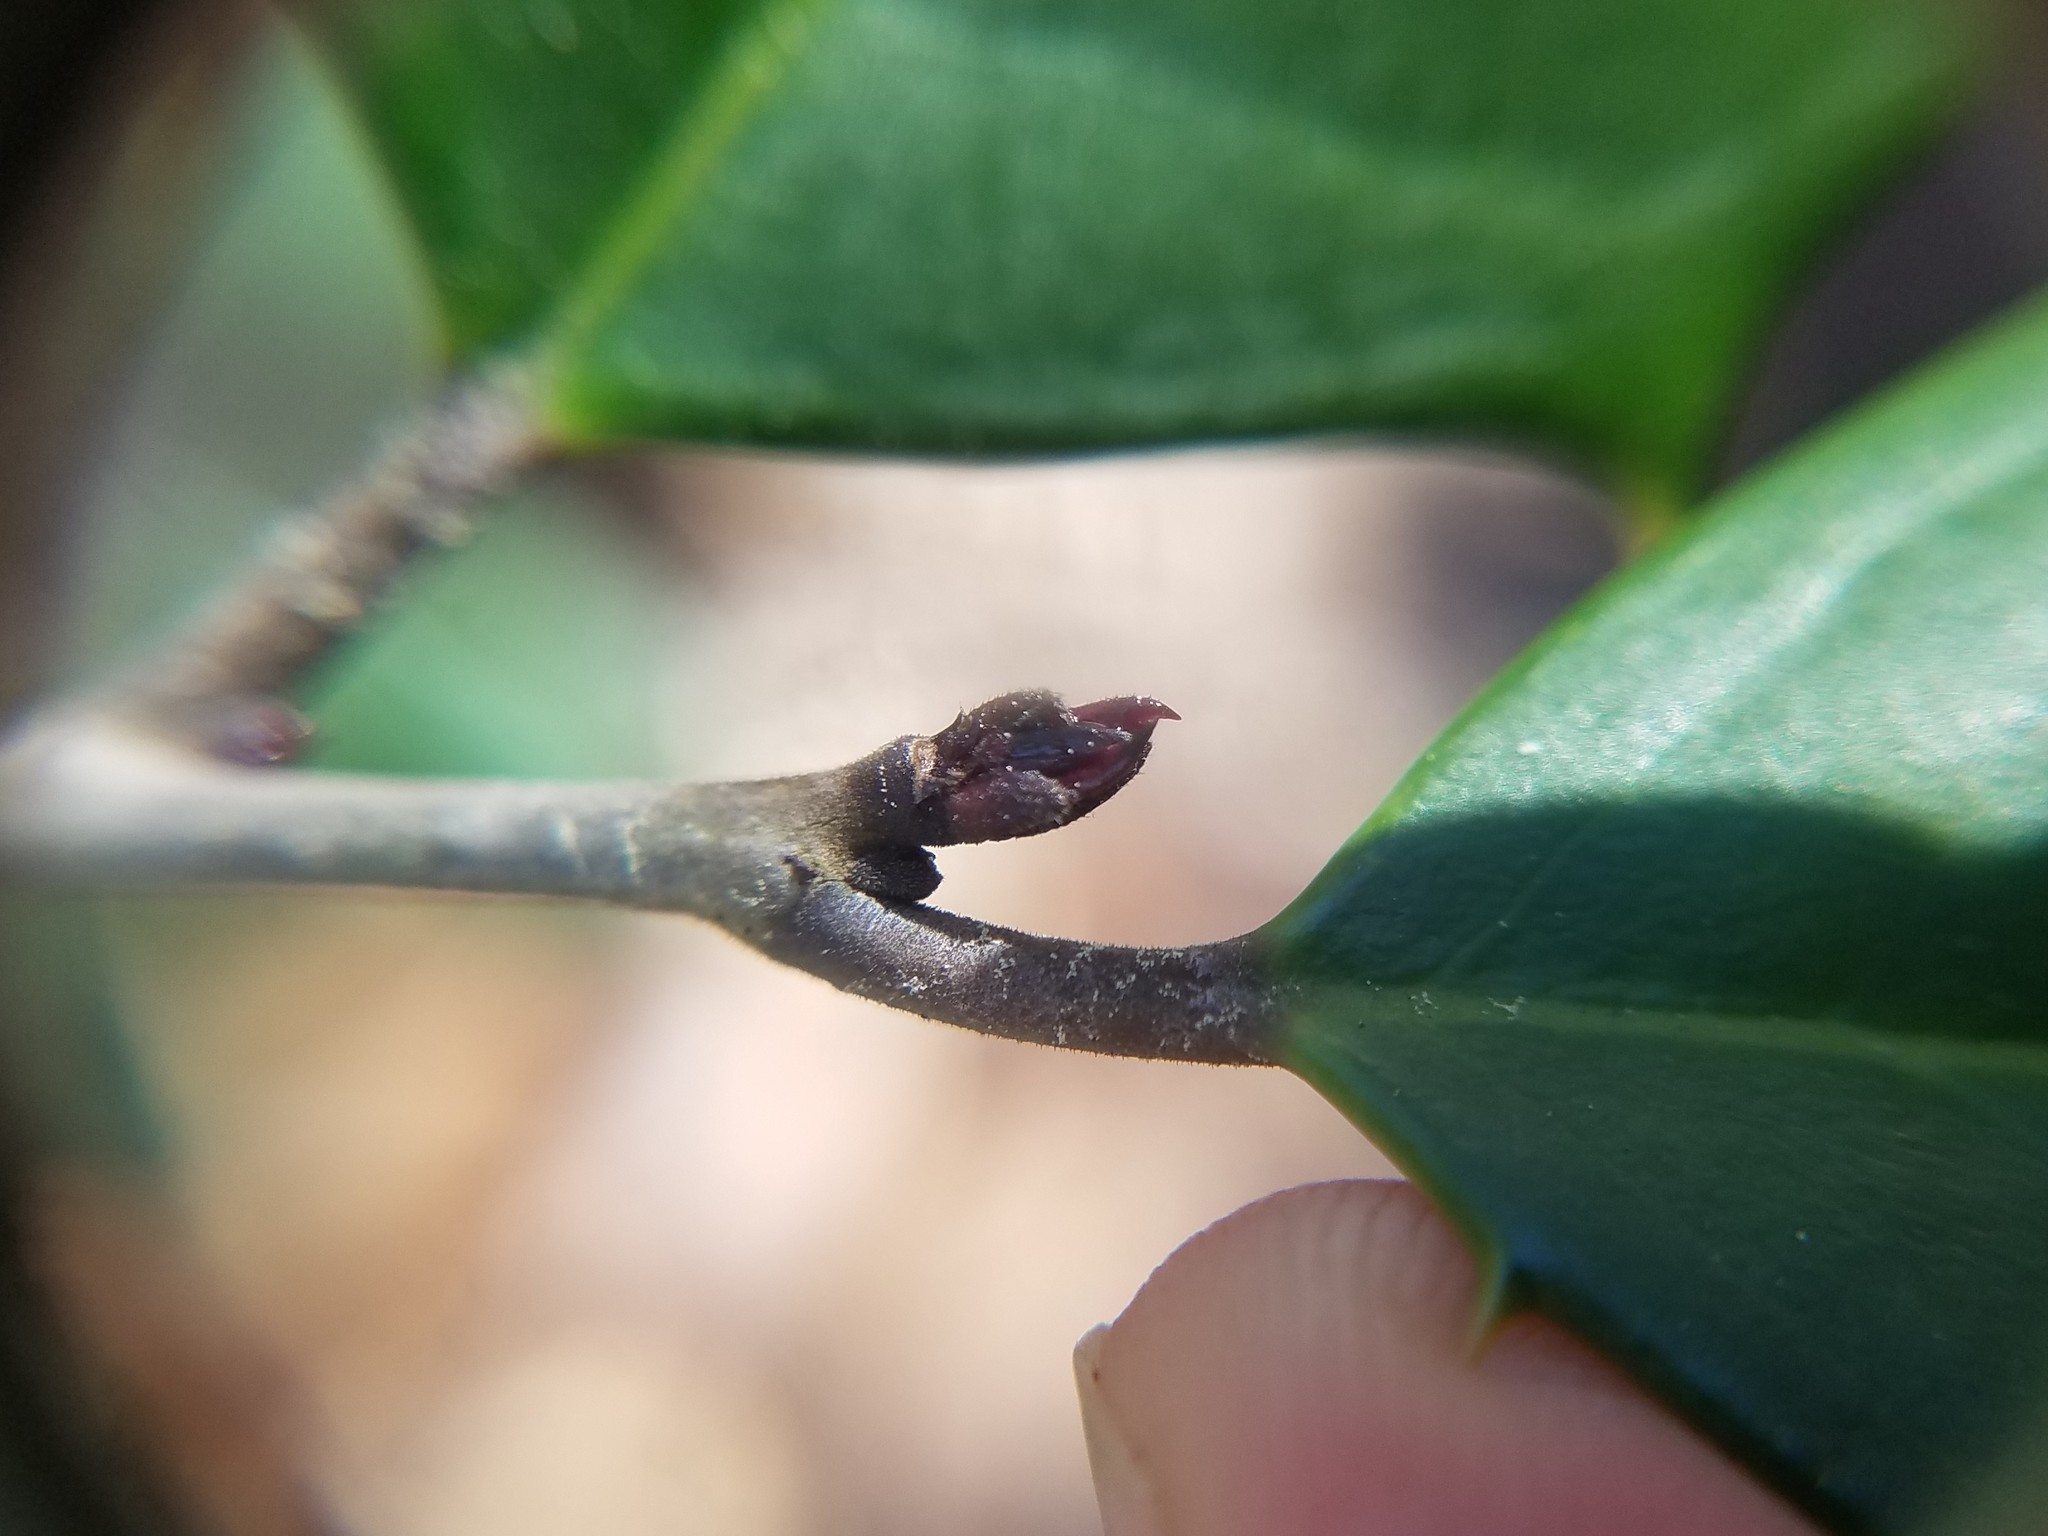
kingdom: Plantae
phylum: Tracheophyta
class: Magnoliopsida
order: Aquifoliales
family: Aquifoliaceae
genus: Ilex
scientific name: Ilex opaca
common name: American holly
